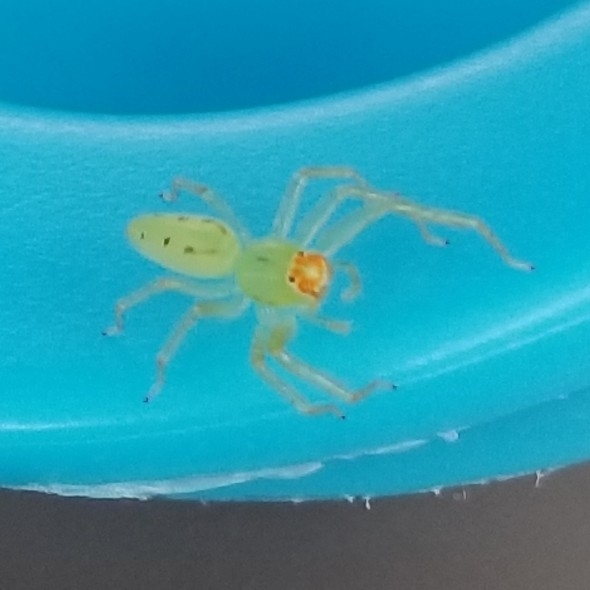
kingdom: Animalia
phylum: Arthropoda
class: Arachnida
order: Araneae
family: Salticidae
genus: Lyssomanes
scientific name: Lyssomanes viridis
